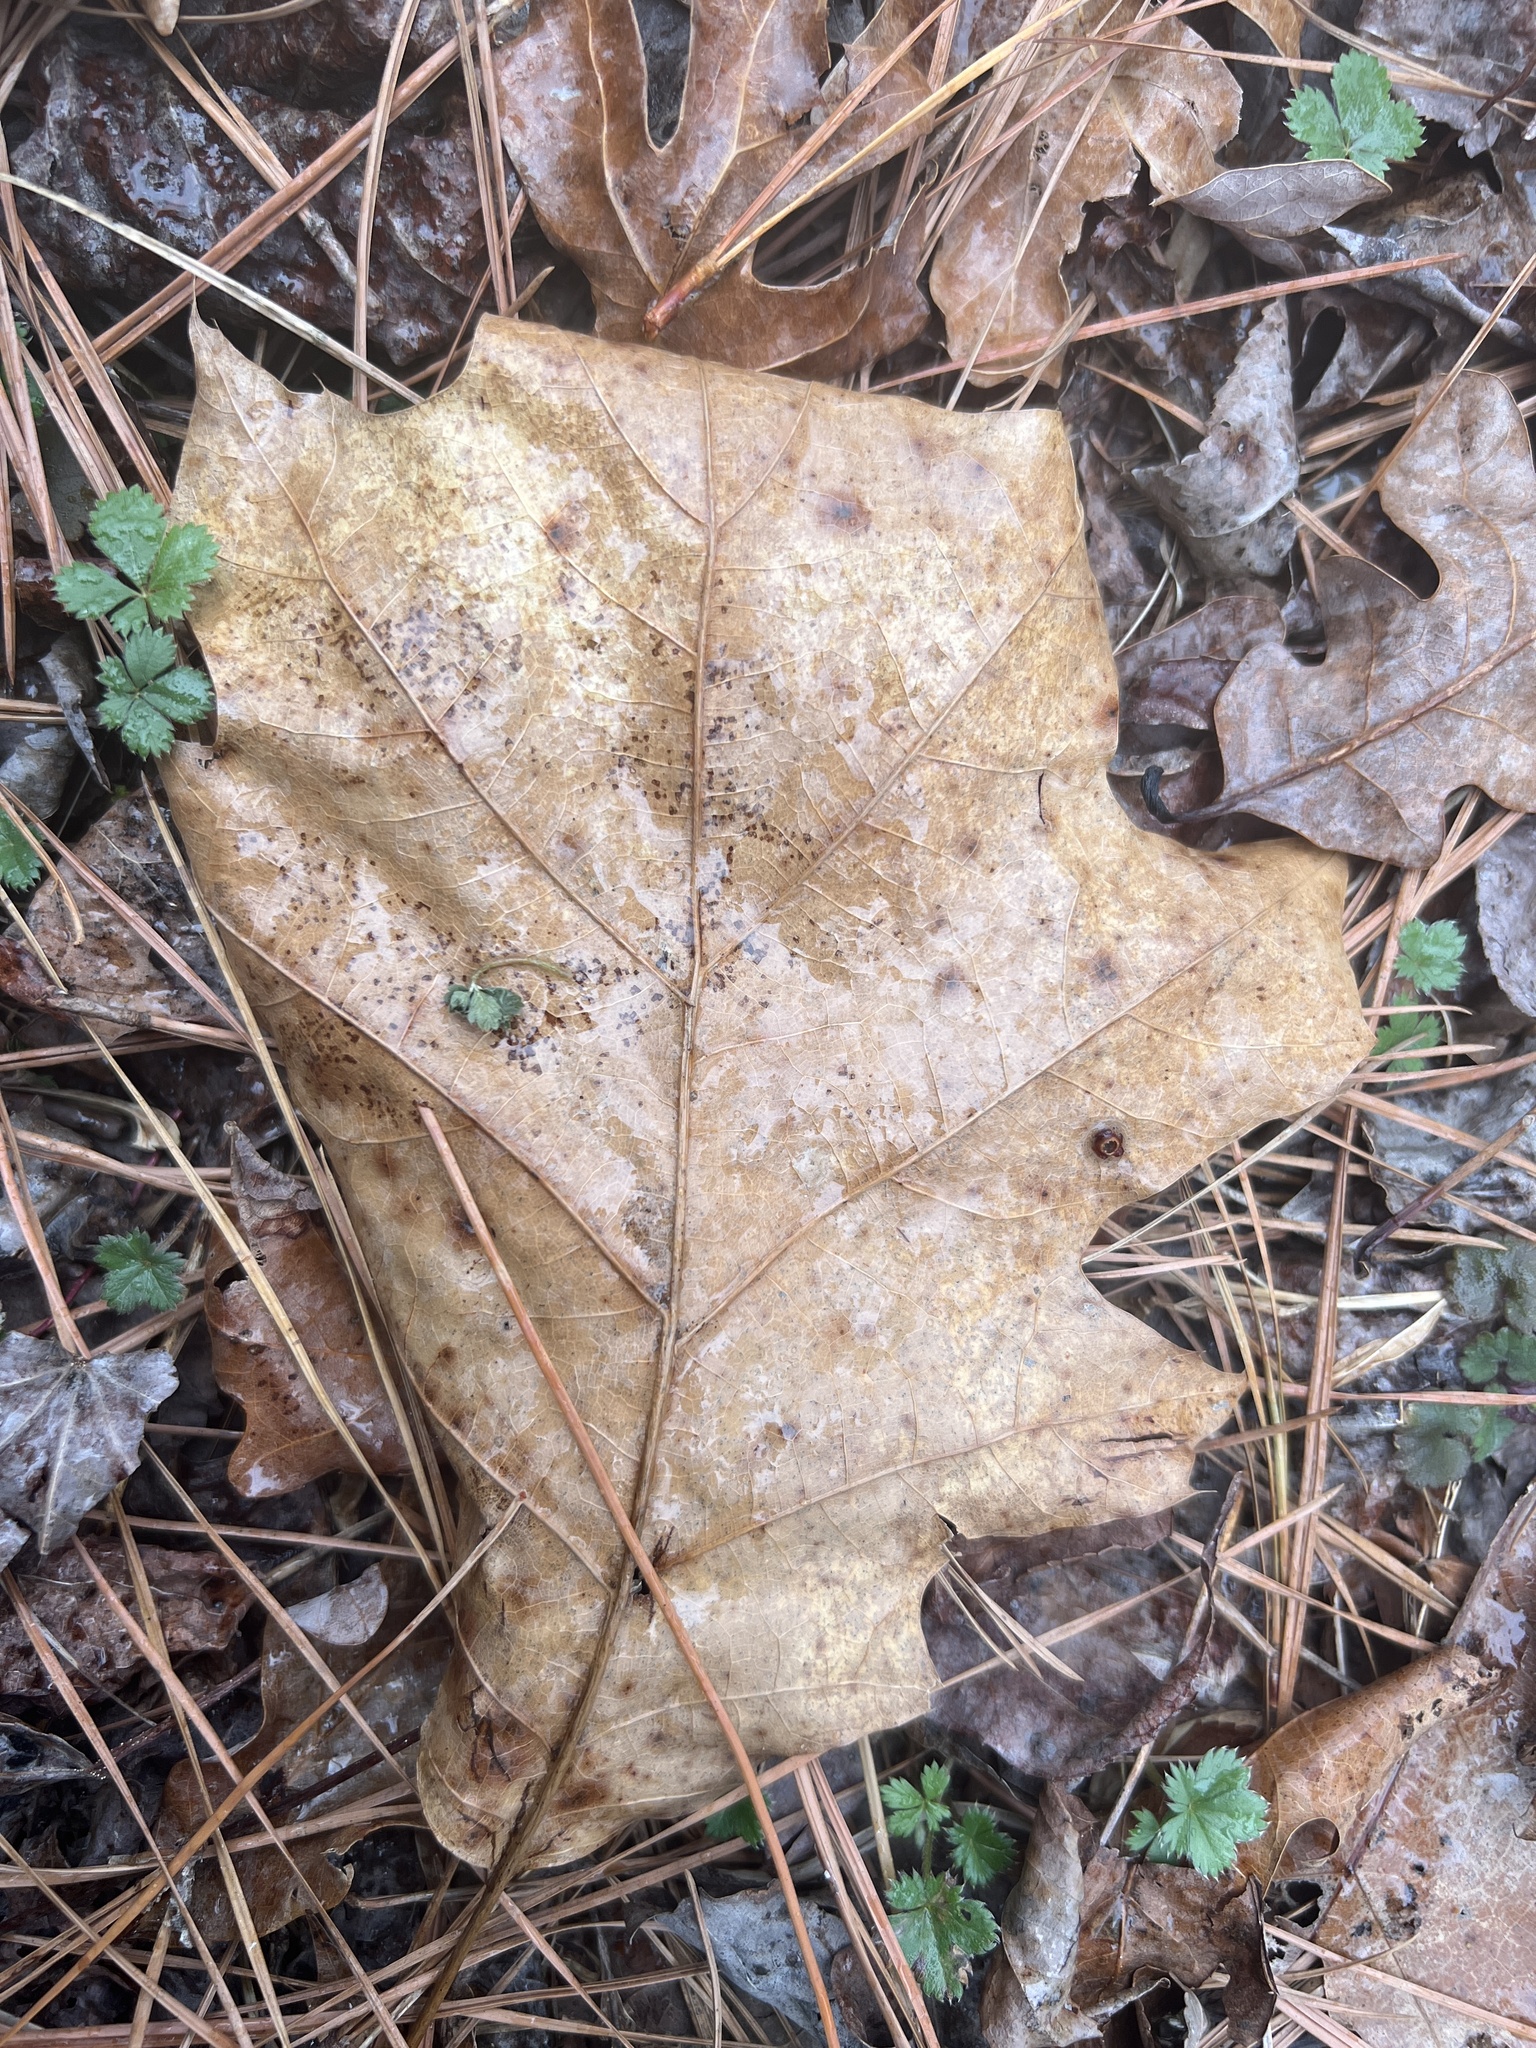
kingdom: Plantae
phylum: Tracheophyta
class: Magnoliopsida
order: Fagales
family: Fagaceae
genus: Quercus
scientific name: Quercus velutina
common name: Black oak
